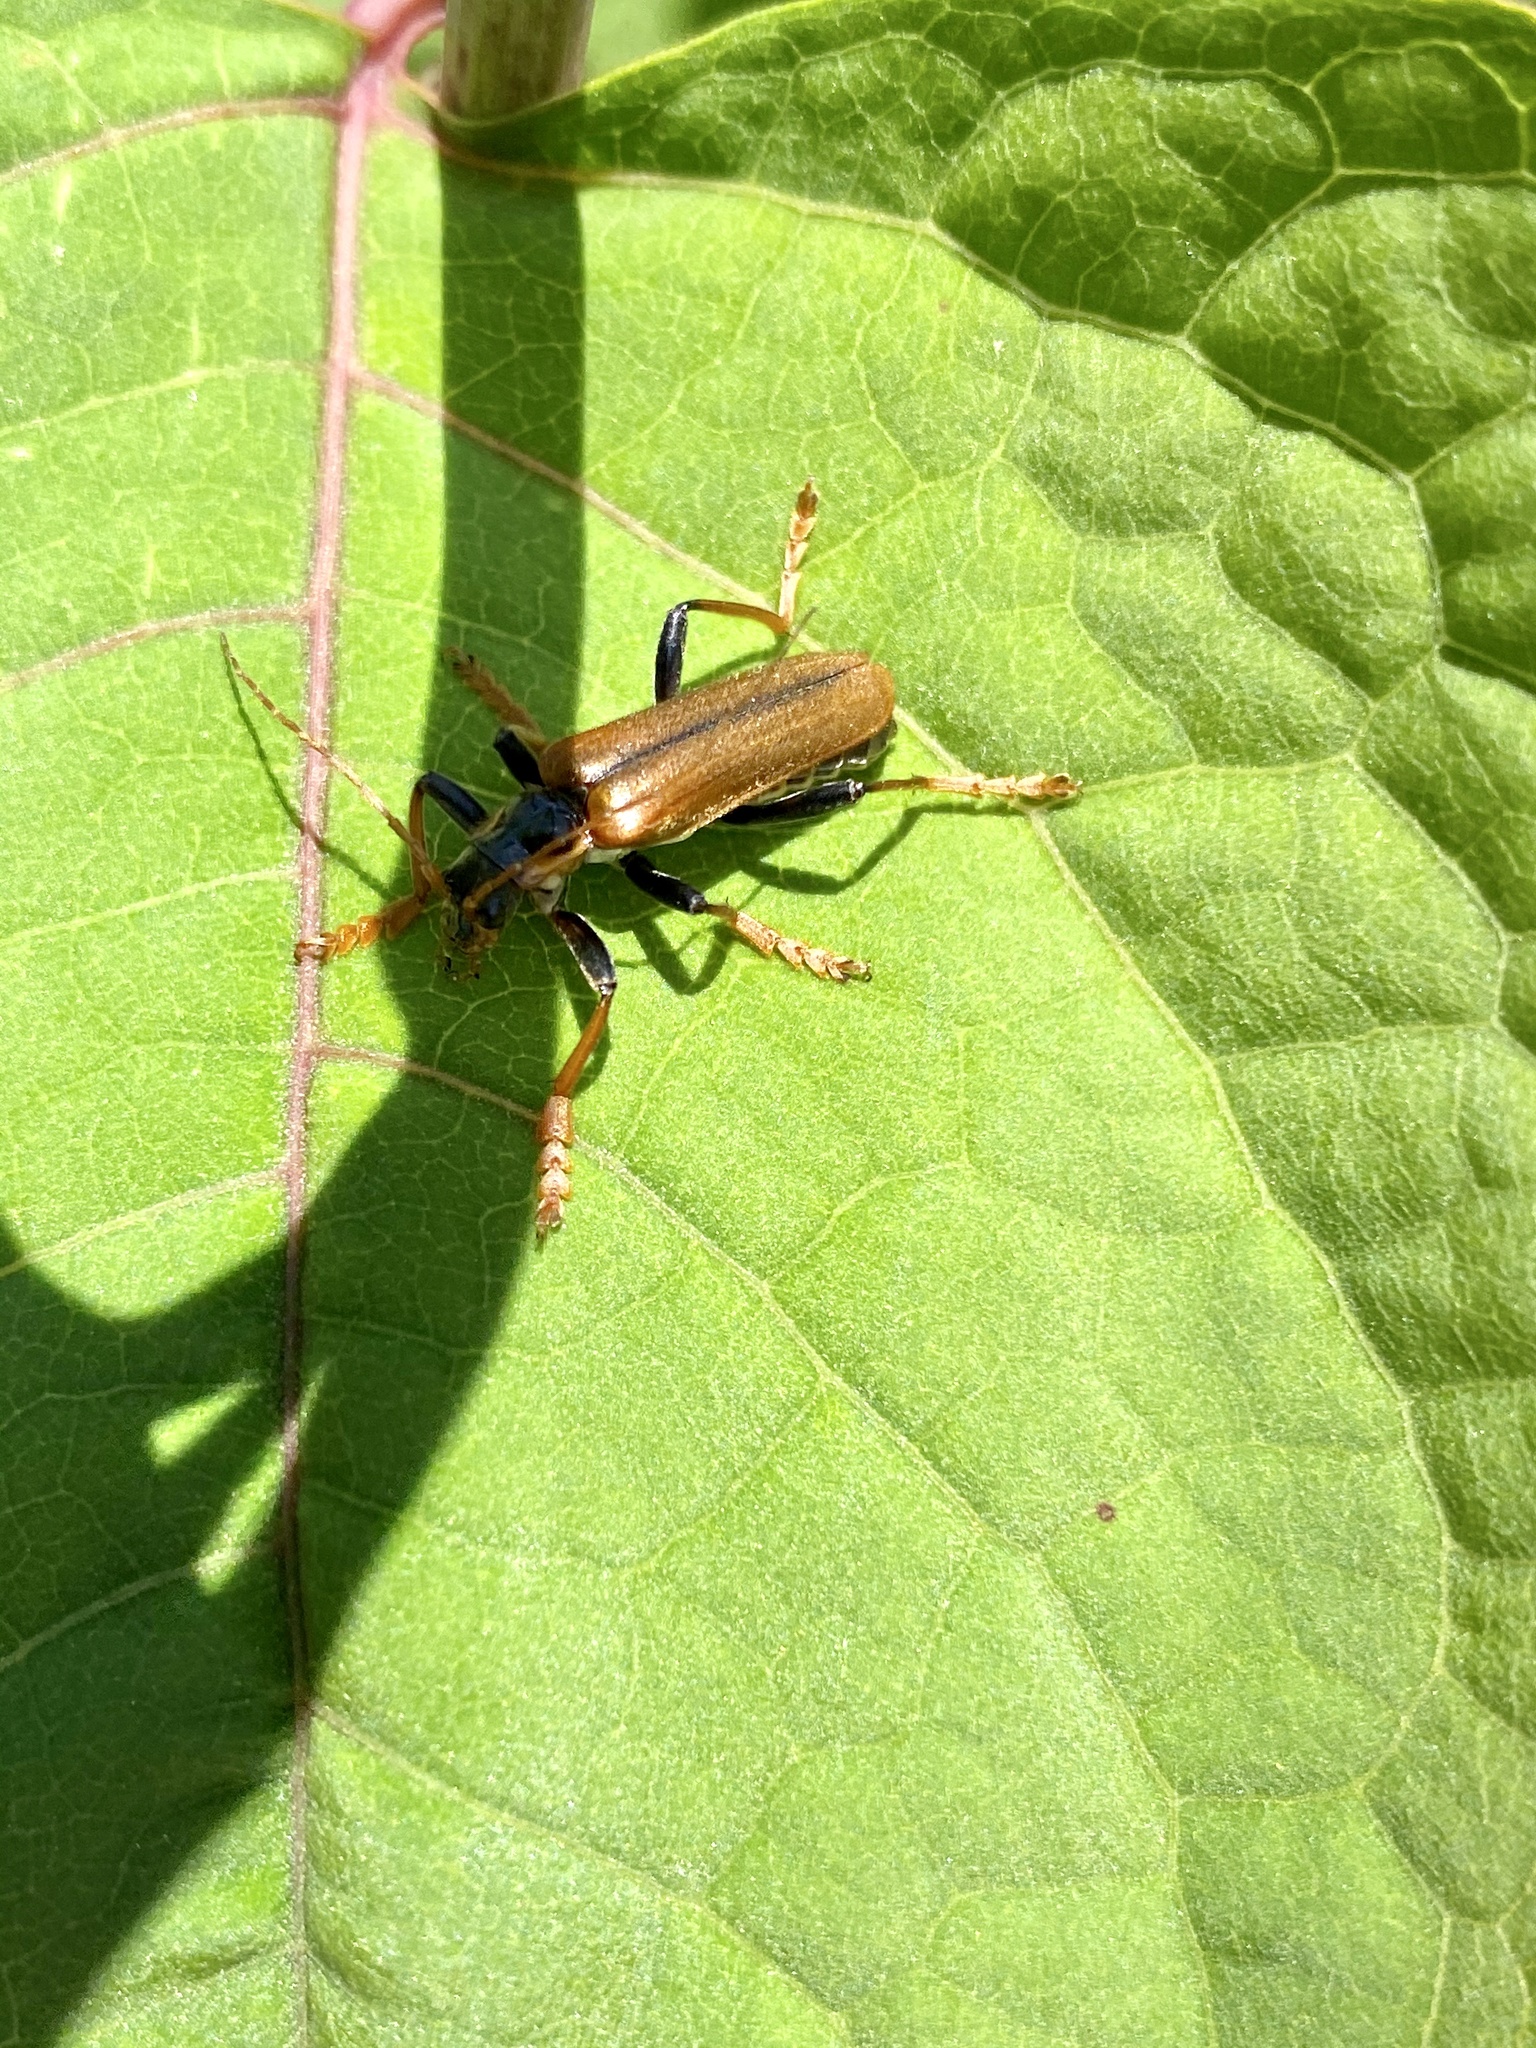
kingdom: Animalia
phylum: Arthropoda
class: Insecta
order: Coleoptera
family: Cantharidae
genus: Lycocerus
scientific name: Lycocerus suturellus
